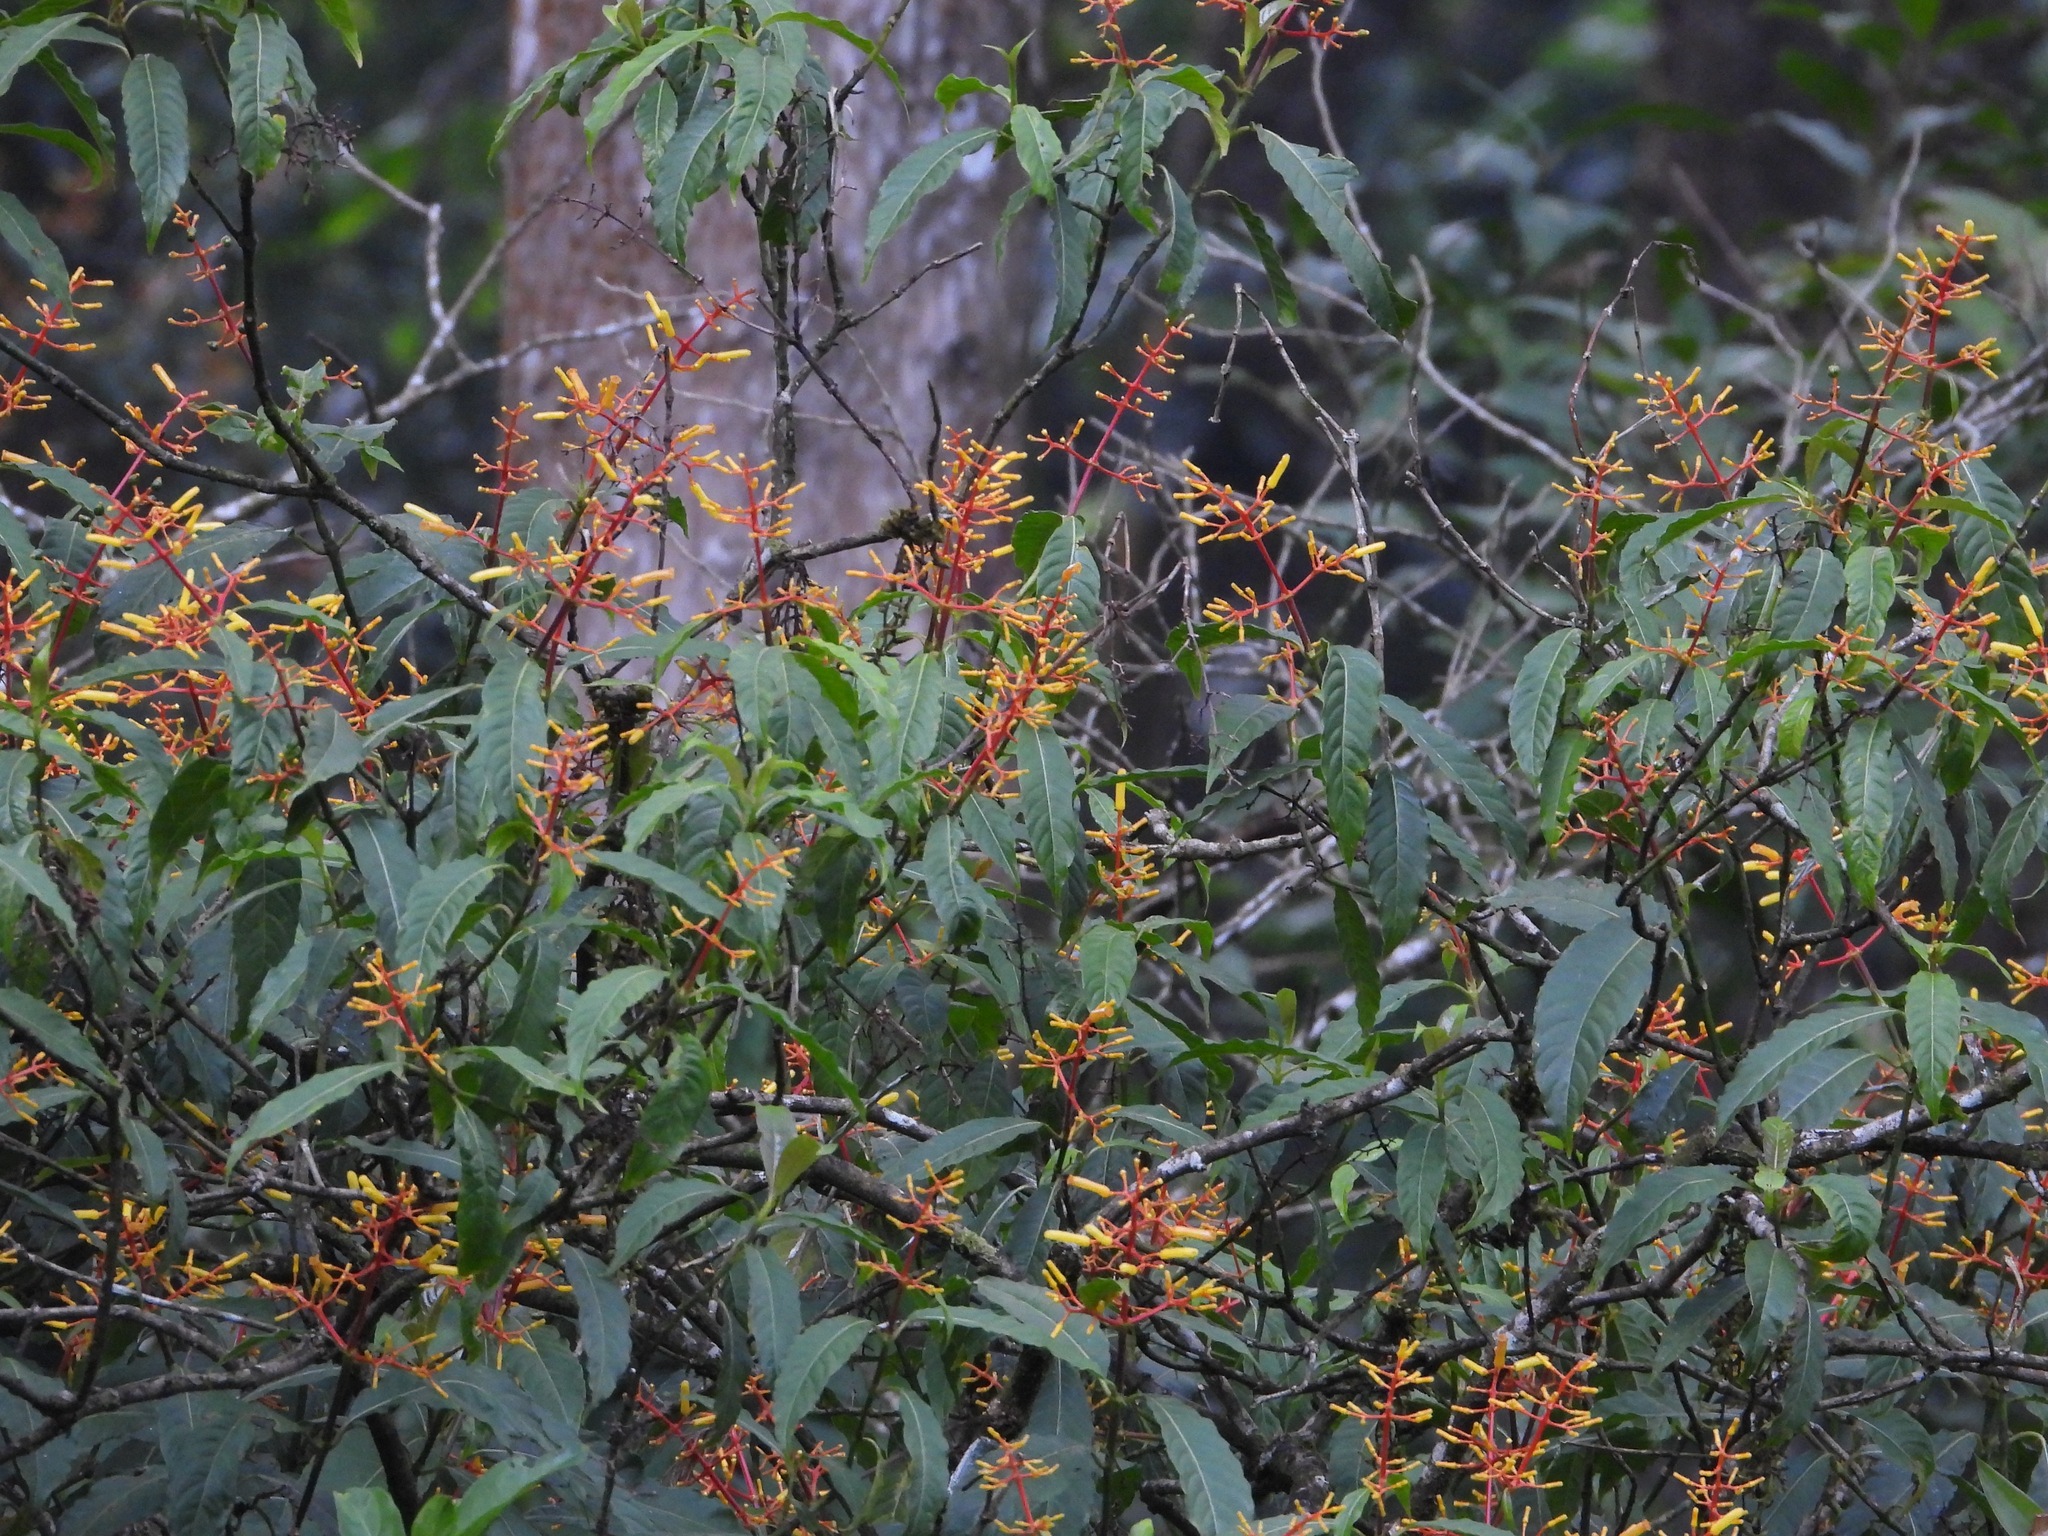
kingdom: Plantae
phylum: Tracheophyta
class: Magnoliopsida
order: Gentianales
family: Rubiaceae
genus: Palicourea
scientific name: Palicourea padifolia
